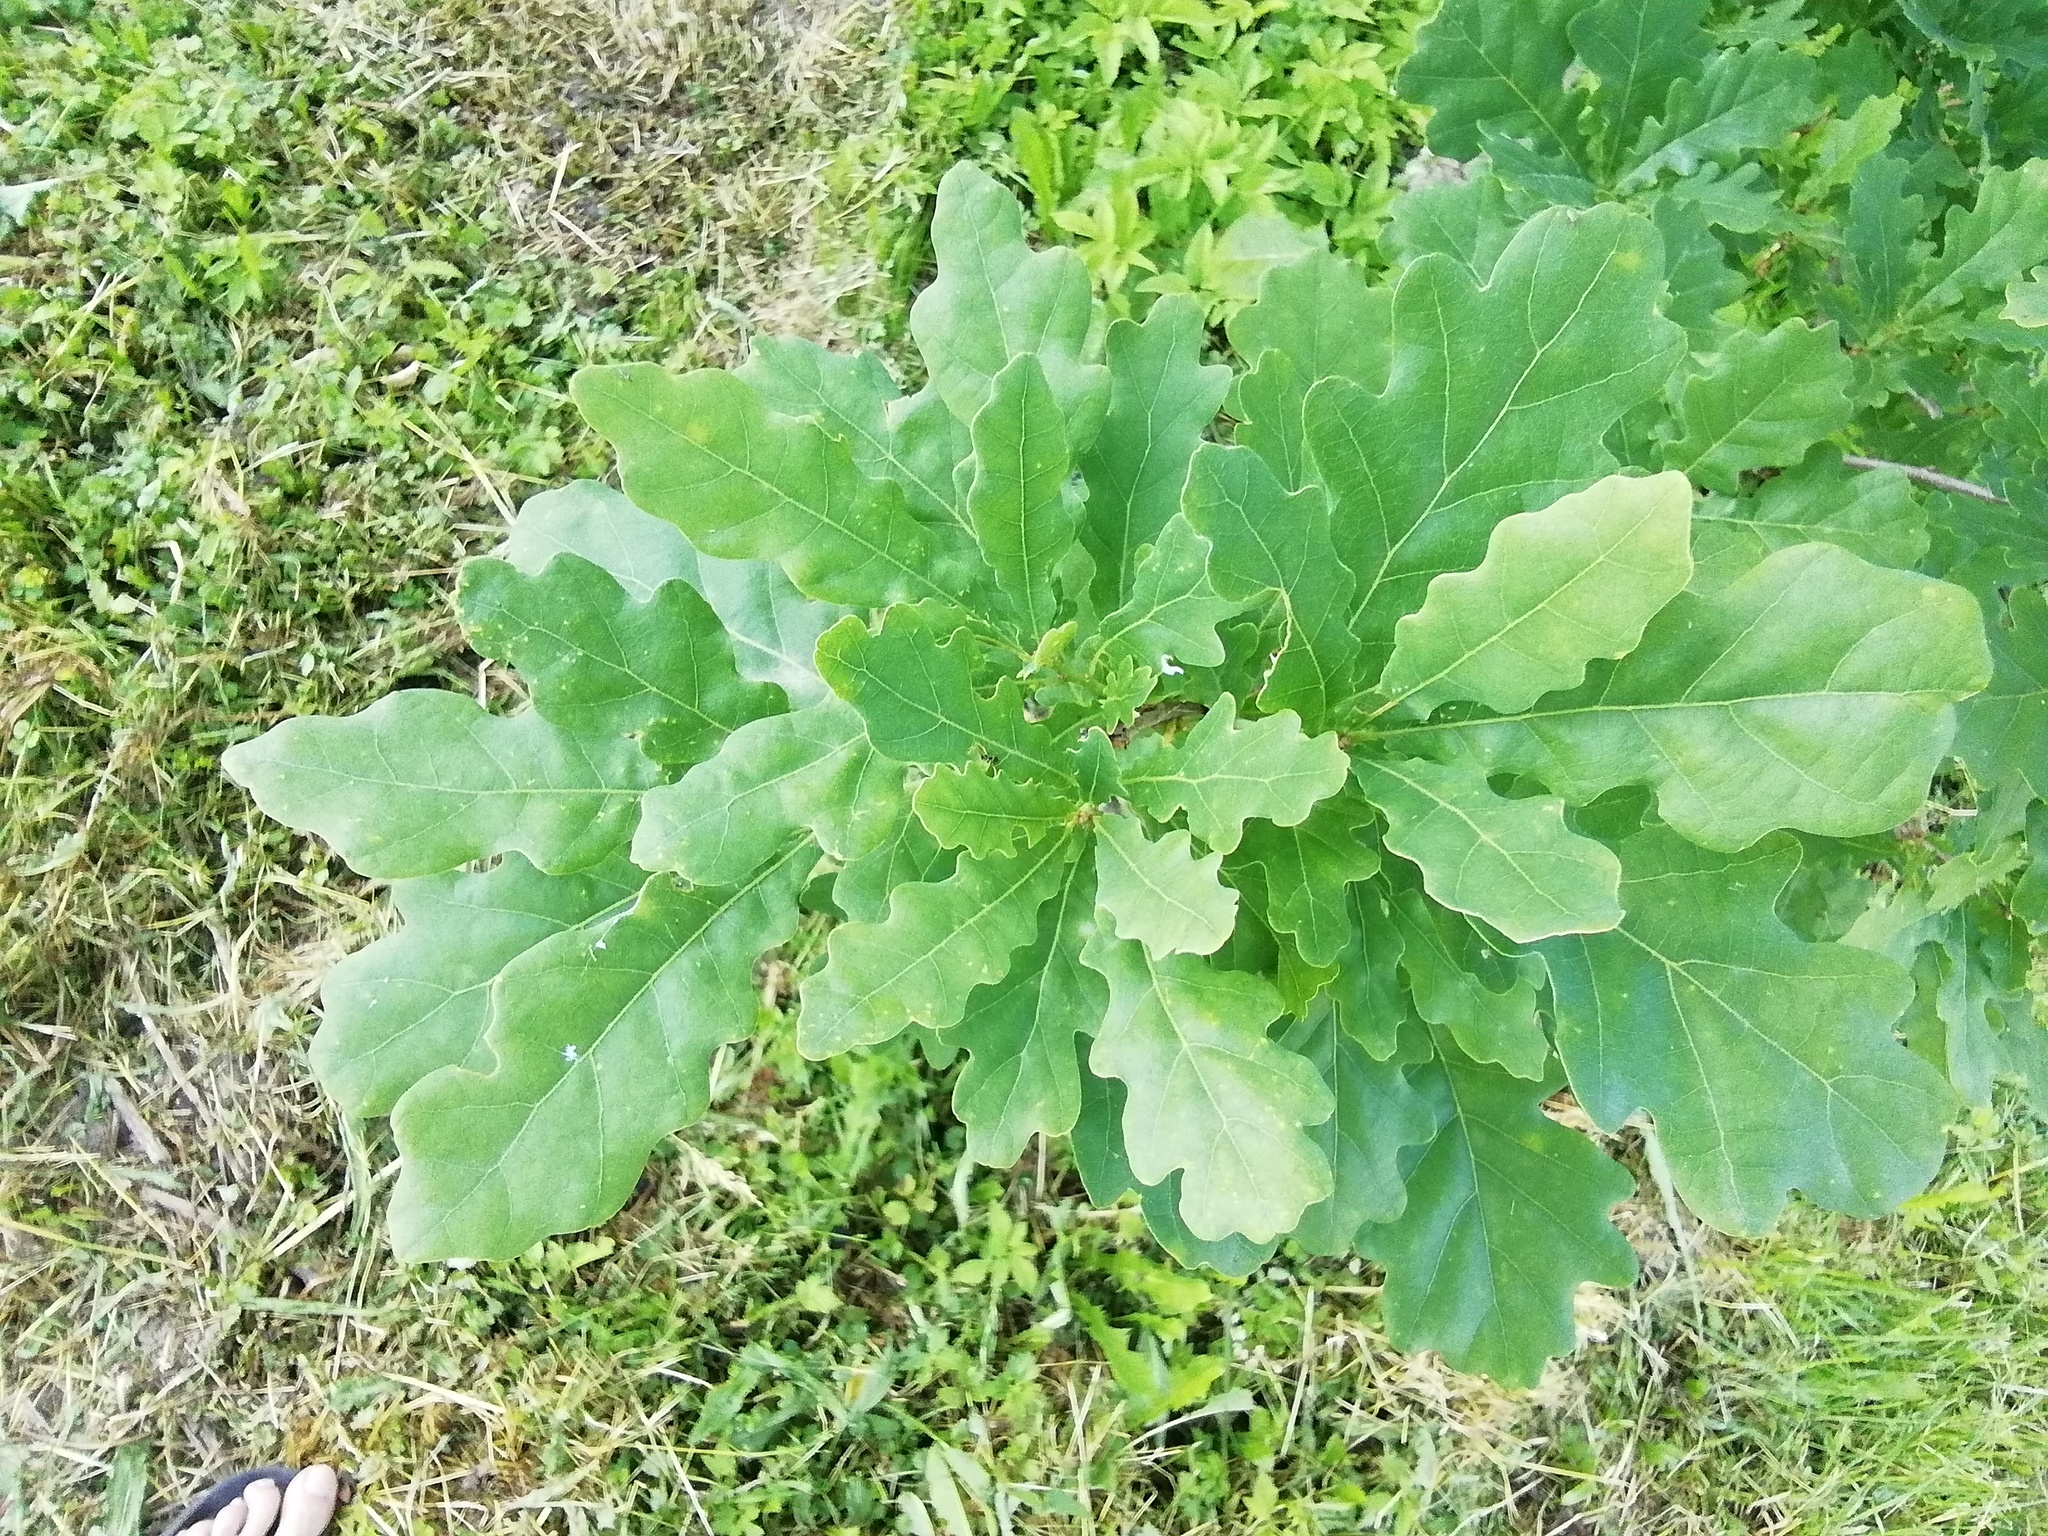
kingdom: Plantae
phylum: Tracheophyta
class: Magnoliopsida
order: Fagales
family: Fagaceae
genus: Quercus
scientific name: Quercus robur
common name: Pedunculate oak
